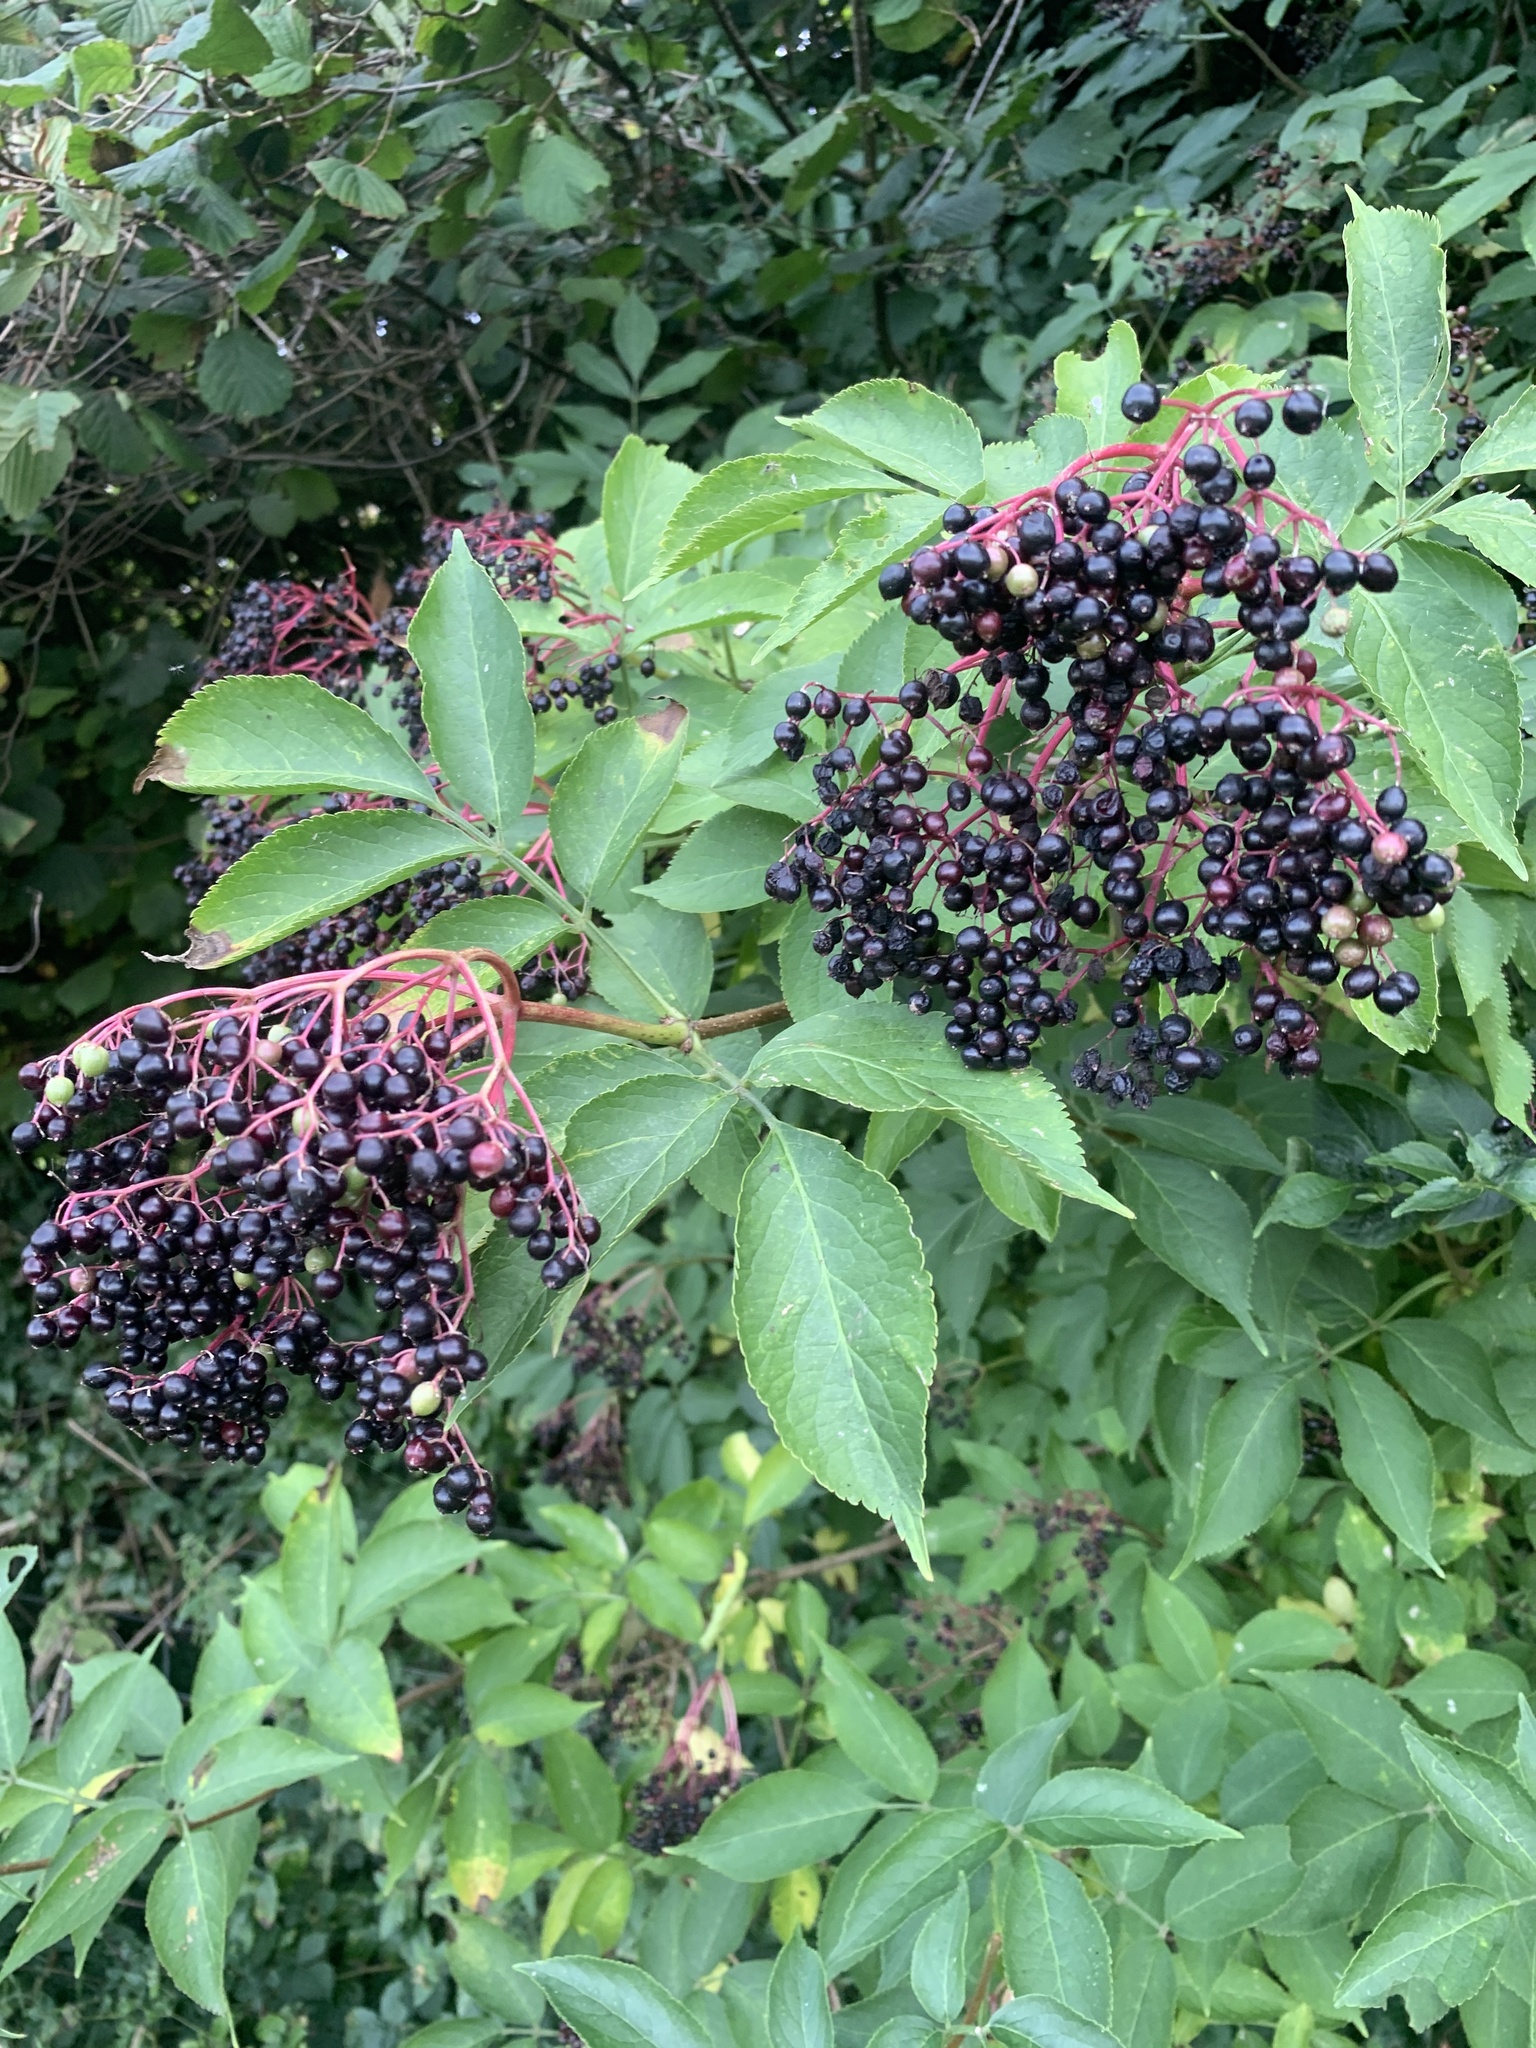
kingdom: Plantae
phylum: Tracheophyta
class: Magnoliopsida
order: Dipsacales
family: Viburnaceae
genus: Sambucus
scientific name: Sambucus nigra
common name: Elder
